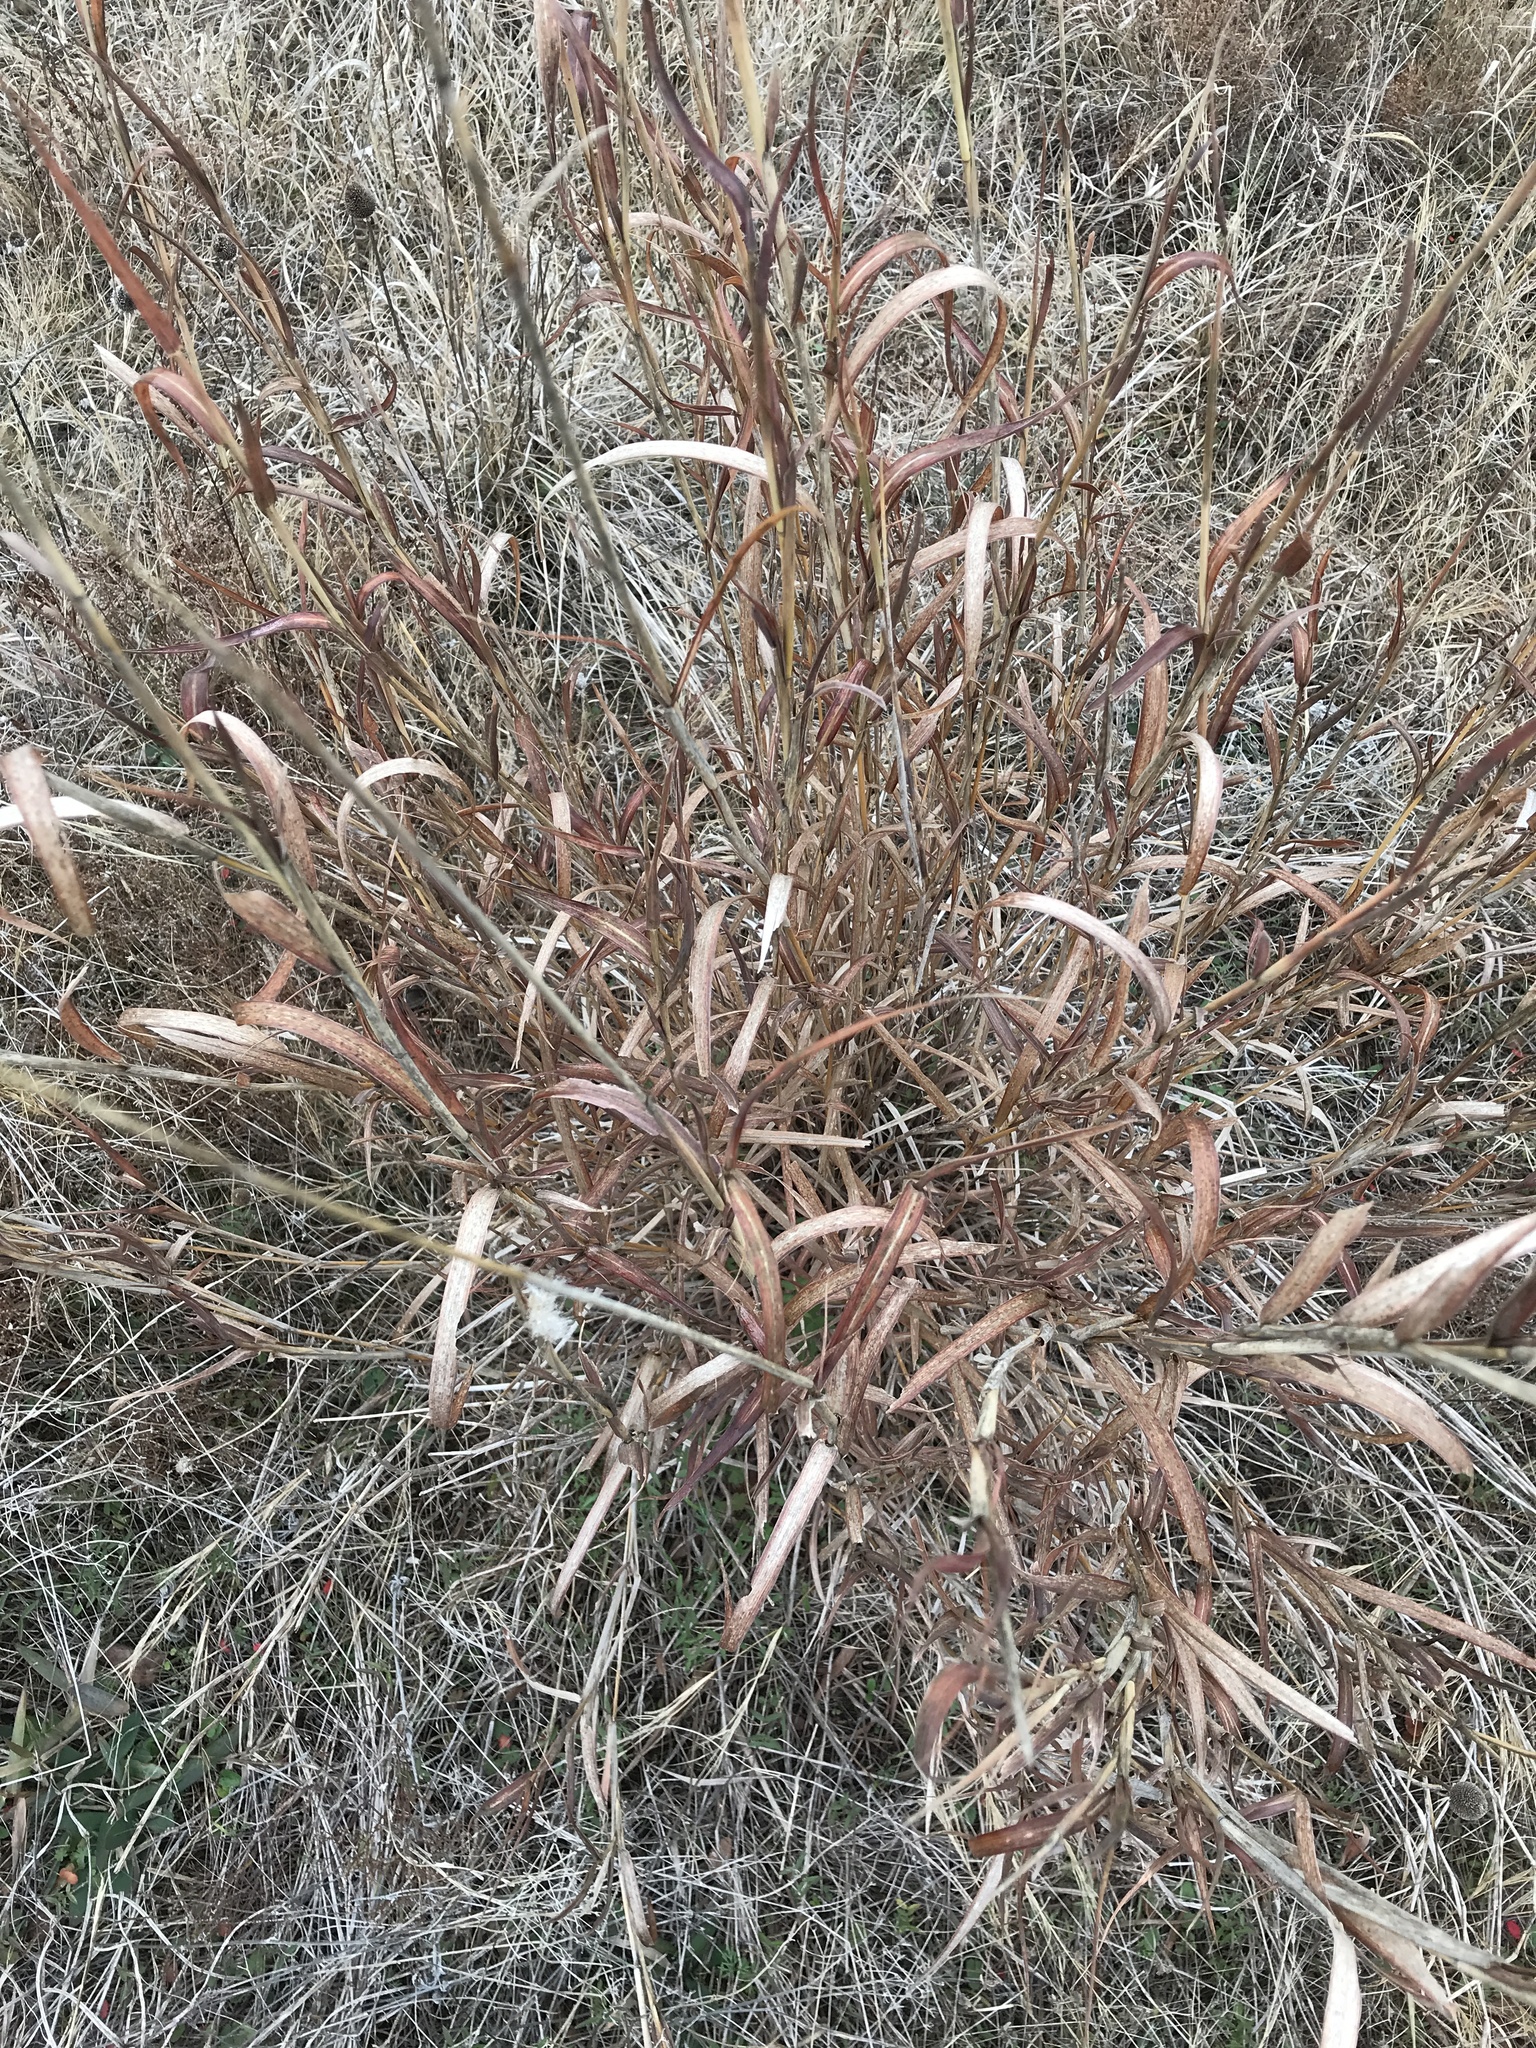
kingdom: Plantae
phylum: Tracheophyta
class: Liliopsida
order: Poales
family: Poaceae
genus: Bothriochloa
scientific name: Bothriochloa torreyana
